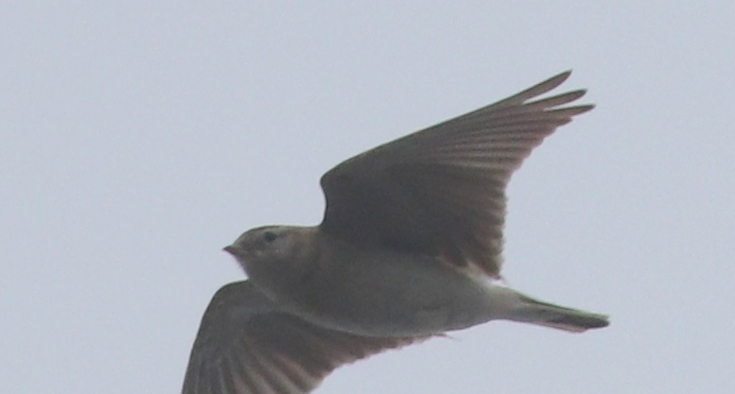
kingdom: Animalia
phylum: Chordata
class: Aves
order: Passeriformes
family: Alaudidae
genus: Calandrella
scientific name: Calandrella brachydactyla
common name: Greater short-toed lark
